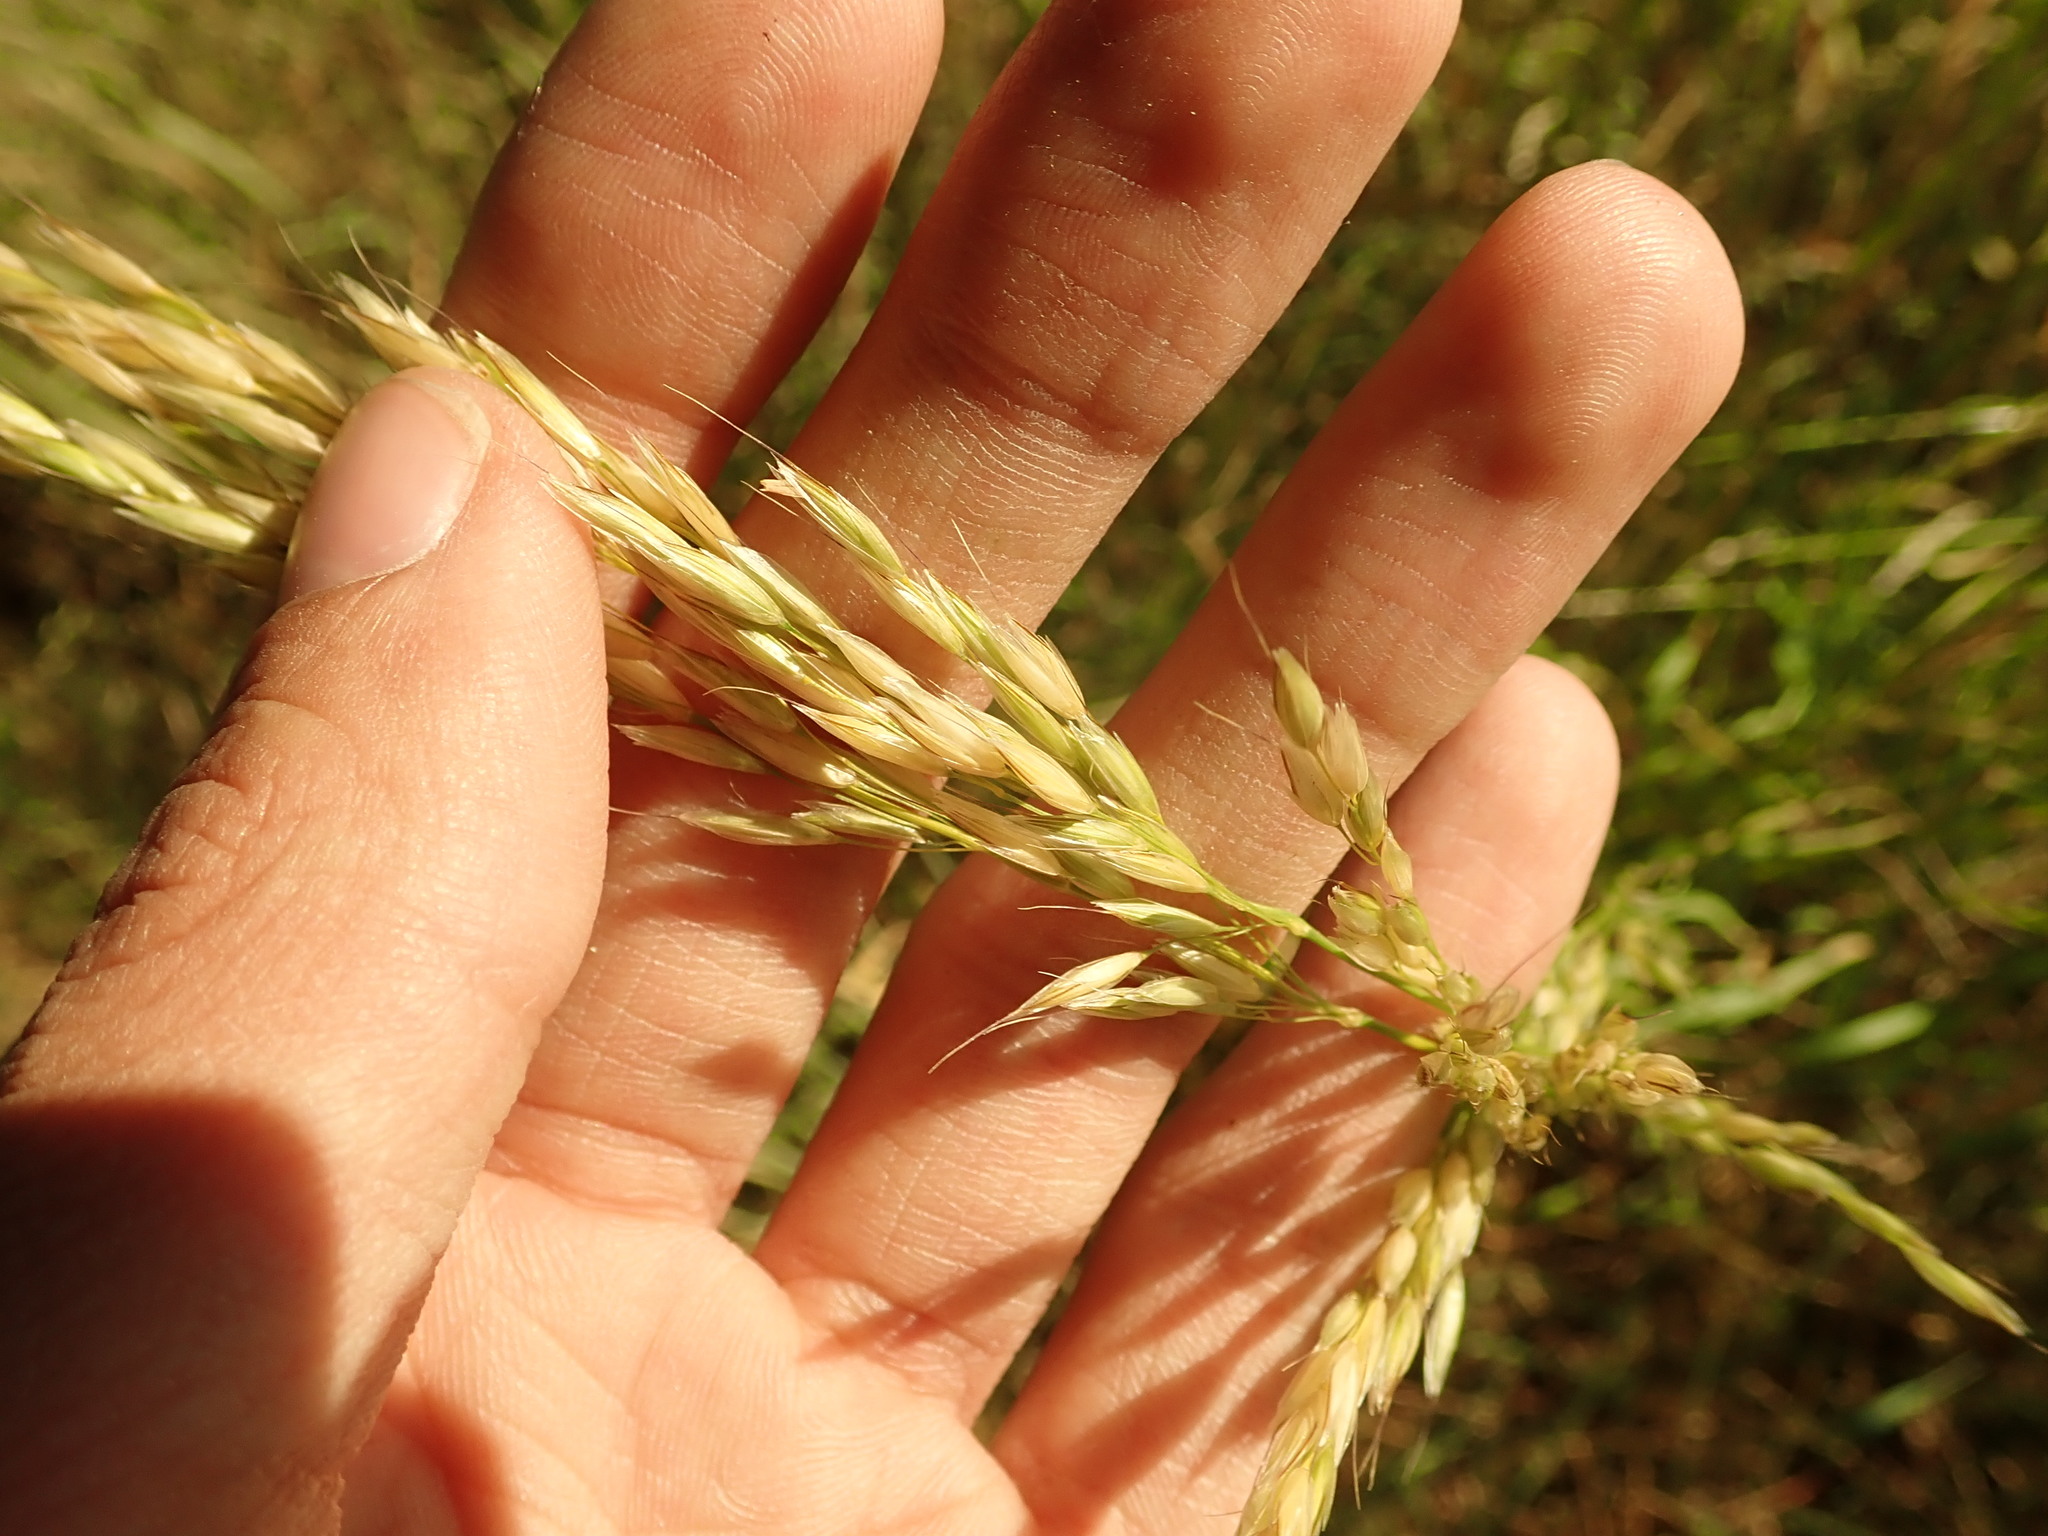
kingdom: Plantae
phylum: Tracheophyta
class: Liliopsida
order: Poales
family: Poaceae
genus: Arrhenatherum
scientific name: Arrhenatherum elatius
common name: Tall oatgrass
